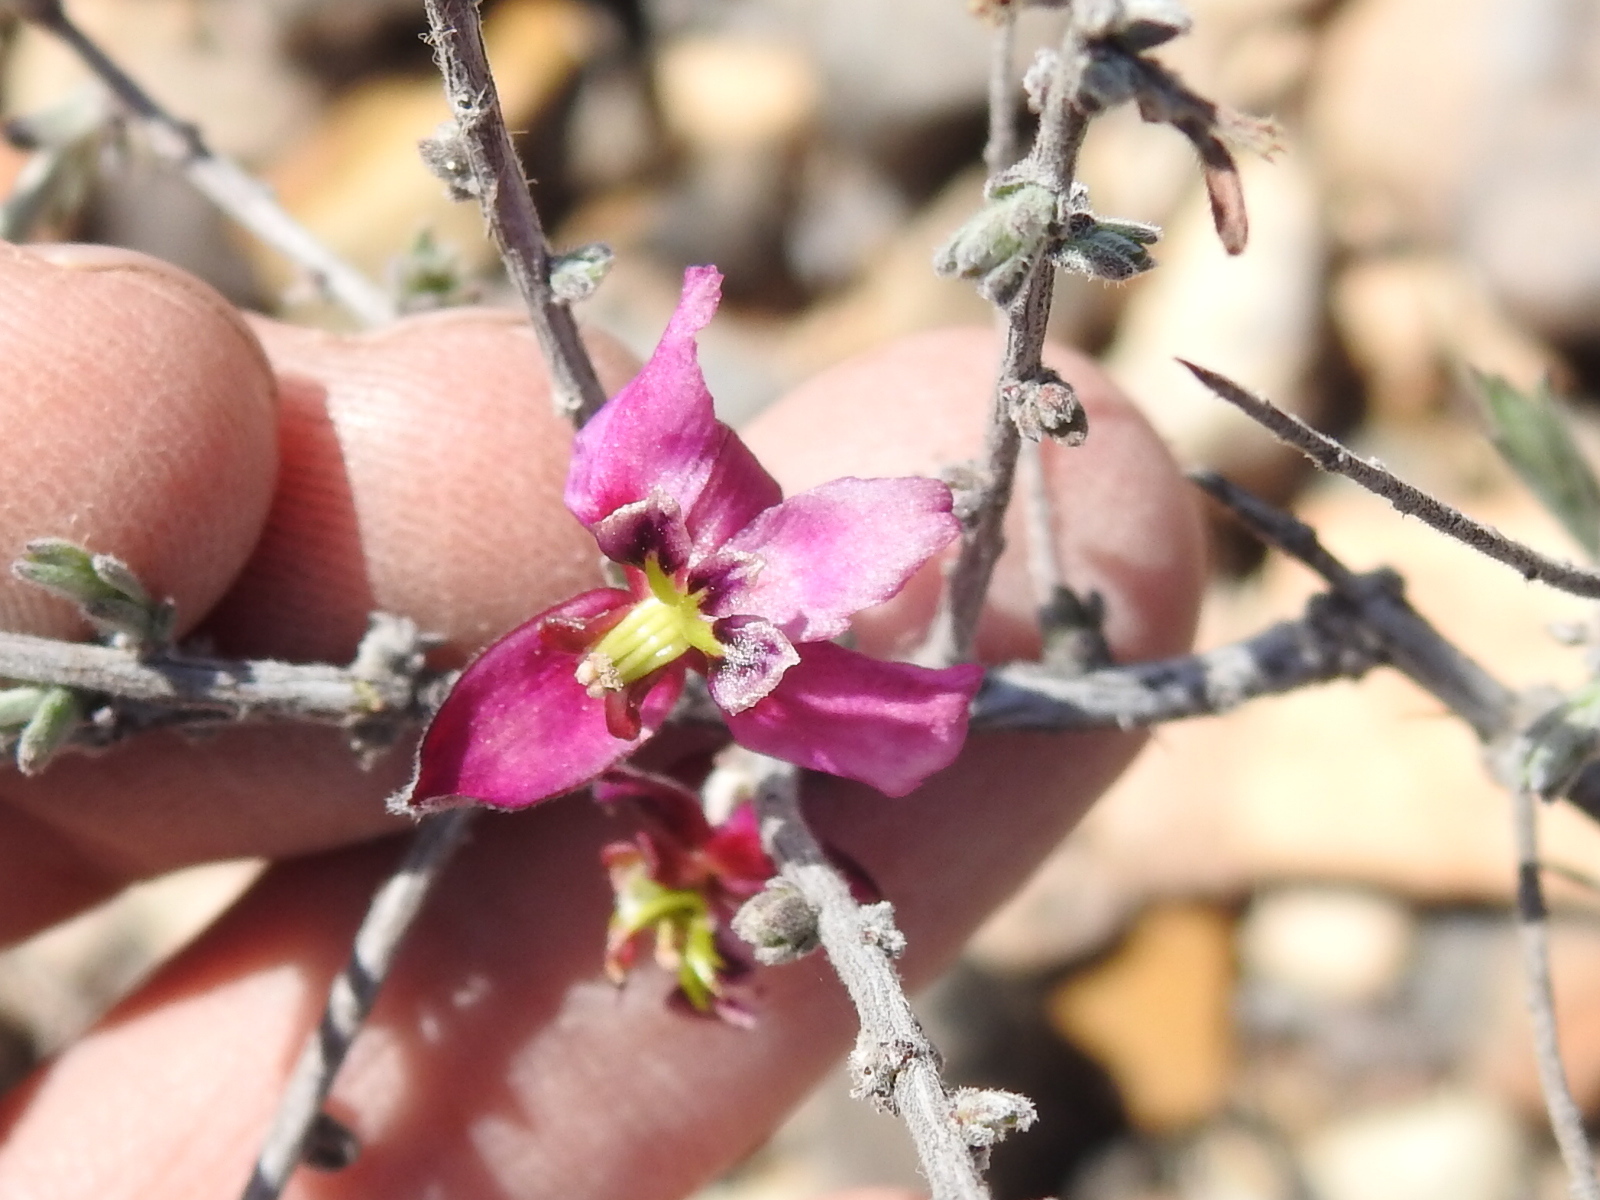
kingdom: Plantae
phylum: Tracheophyta
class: Magnoliopsida
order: Zygophyllales
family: Krameriaceae
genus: Krameria
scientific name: Krameria erecta
